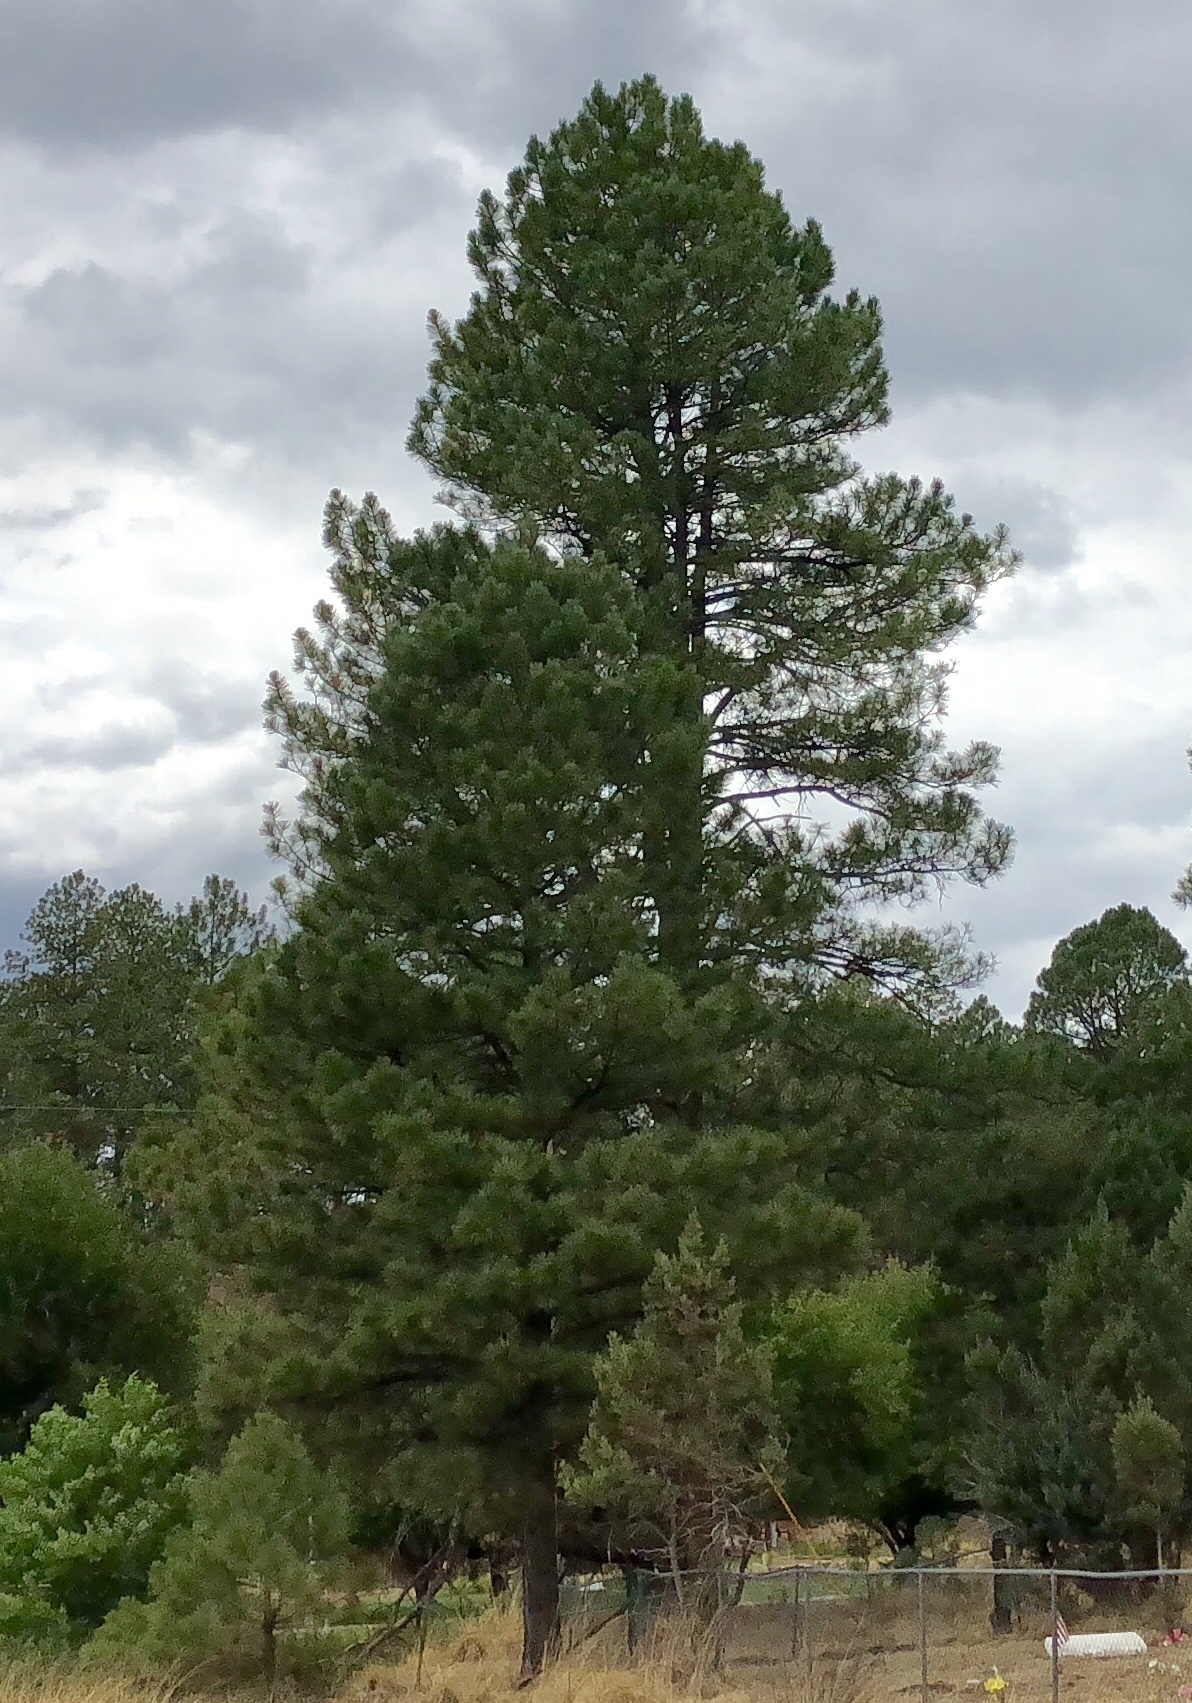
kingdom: Plantae
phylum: Tracheophyta
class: Pinopsida
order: Pinales
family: Pinaceae
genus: Pinus
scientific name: Pinus ponderosa
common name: Western yellow-pine
